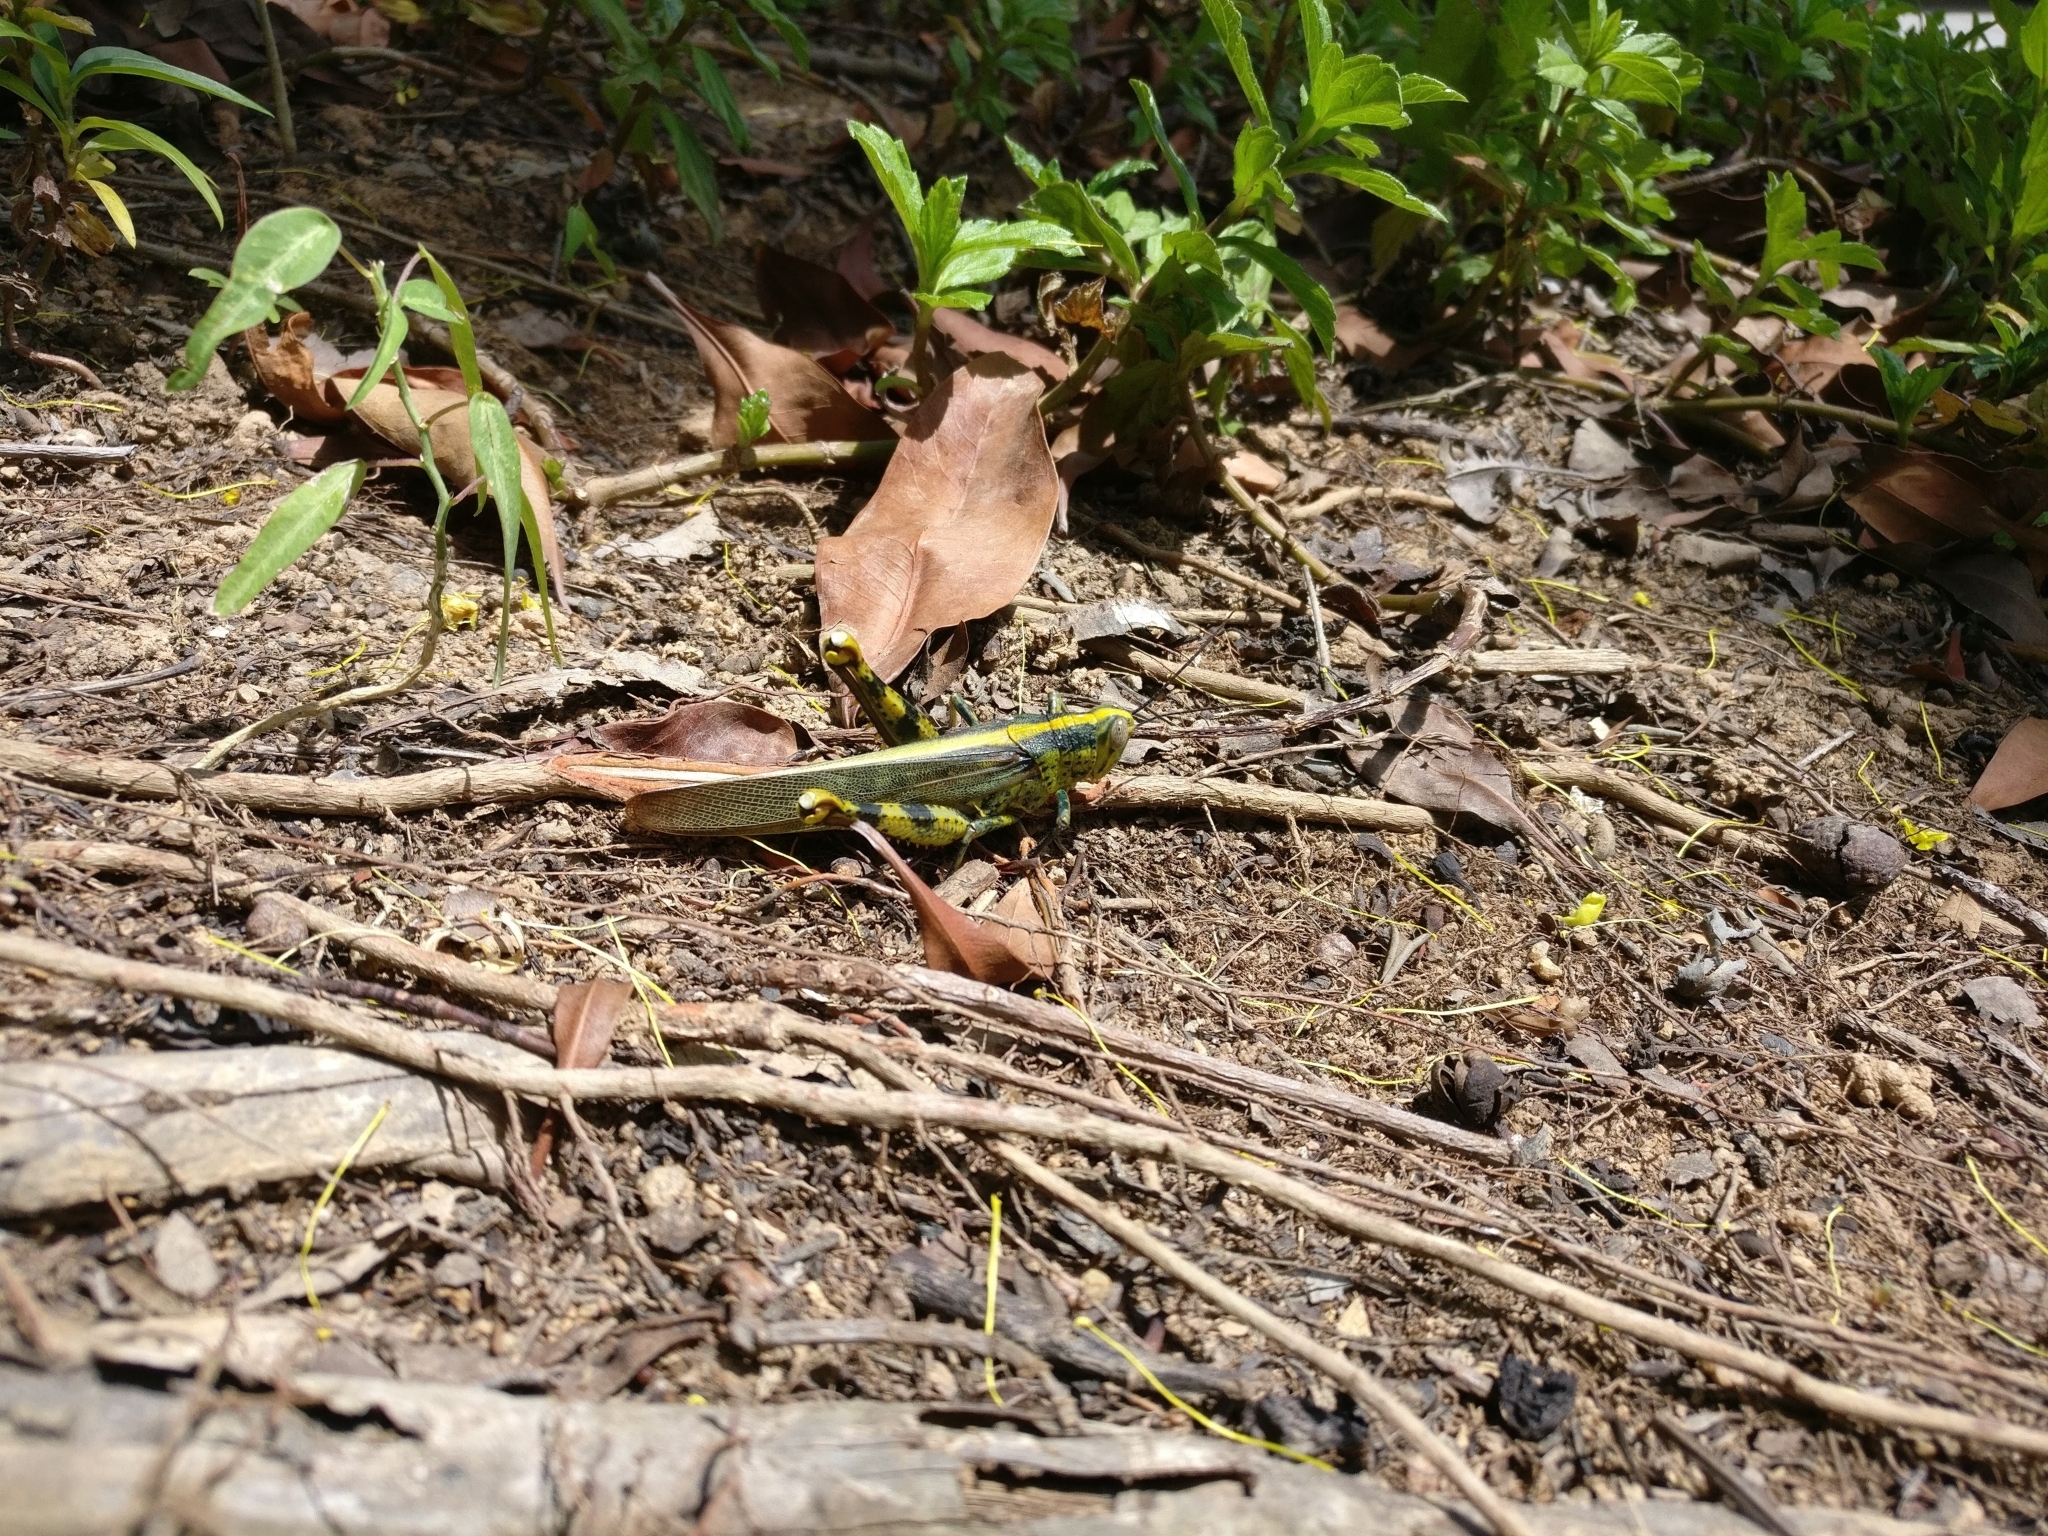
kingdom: Animalia
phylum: Arthropoda
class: Insecta
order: Orthoptera
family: Acrididae
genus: Valanga
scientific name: Valanga nigricornis
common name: Javanese bird grasshopper
